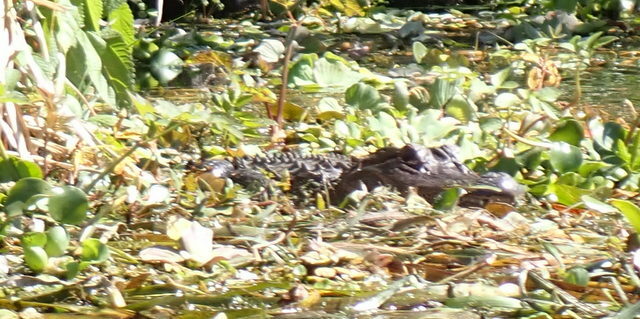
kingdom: Animalia
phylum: Chordata
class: Crocodylia
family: Alligatoridae
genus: Alligator
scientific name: Alligator mississippiensis
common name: American alligator
